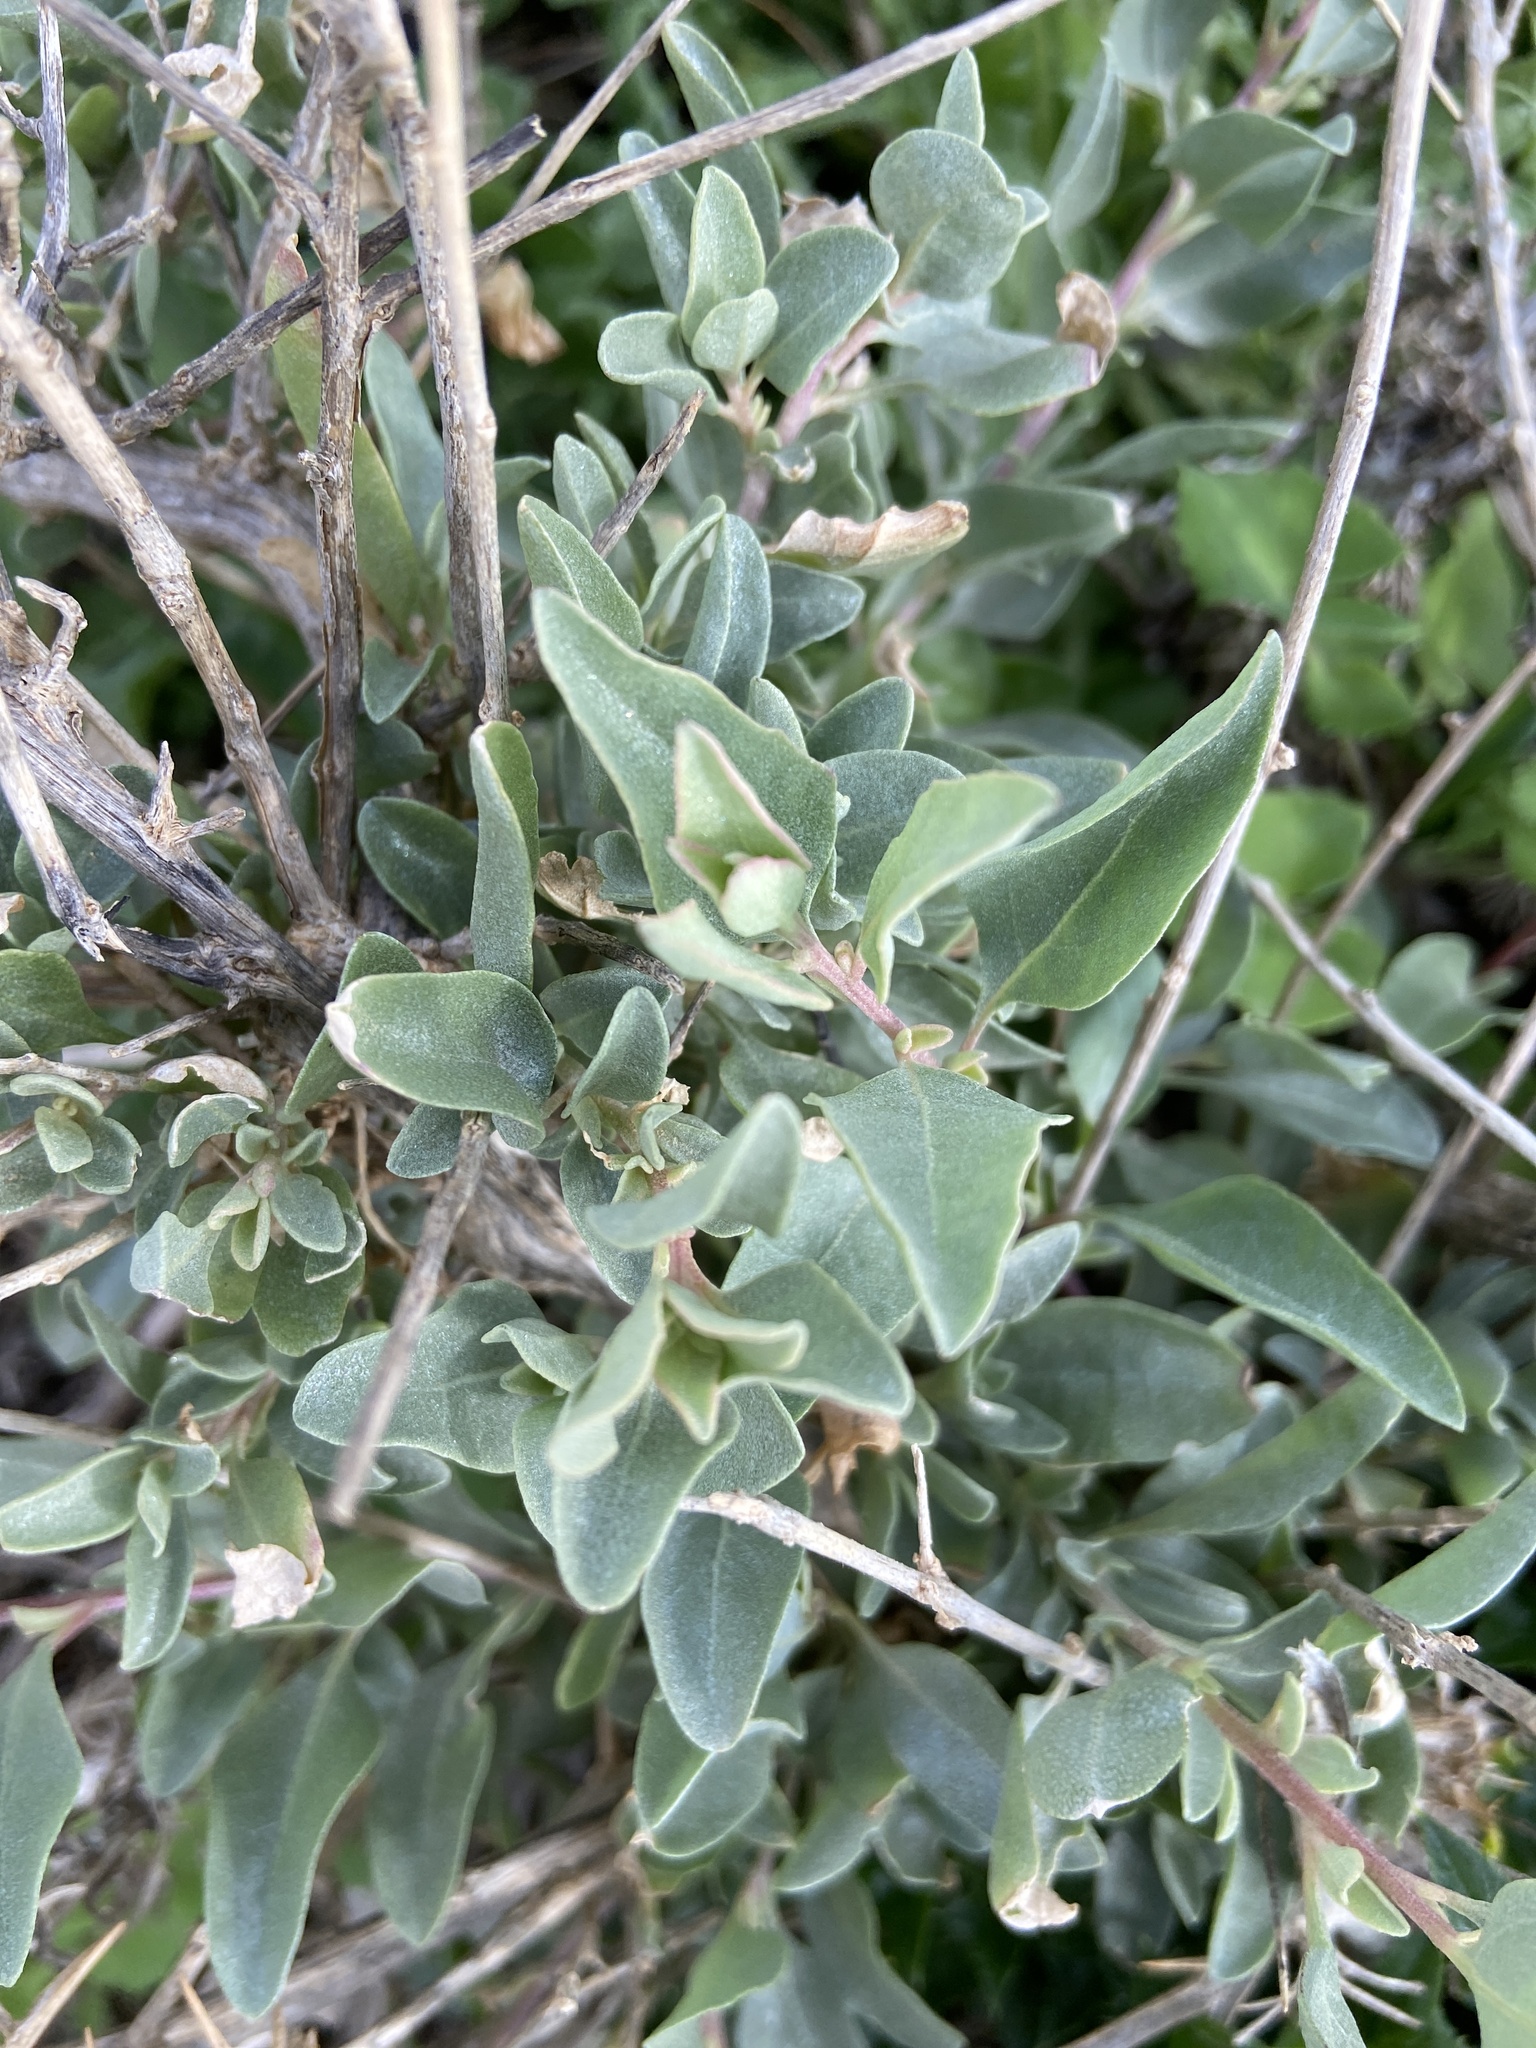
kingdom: Plantae
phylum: Tracheophyta
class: Magnoliopsida
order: Caryophyllales
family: Amaranthaceae
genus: Atriplex
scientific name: Atriplex halimus
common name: Shrubby orache
